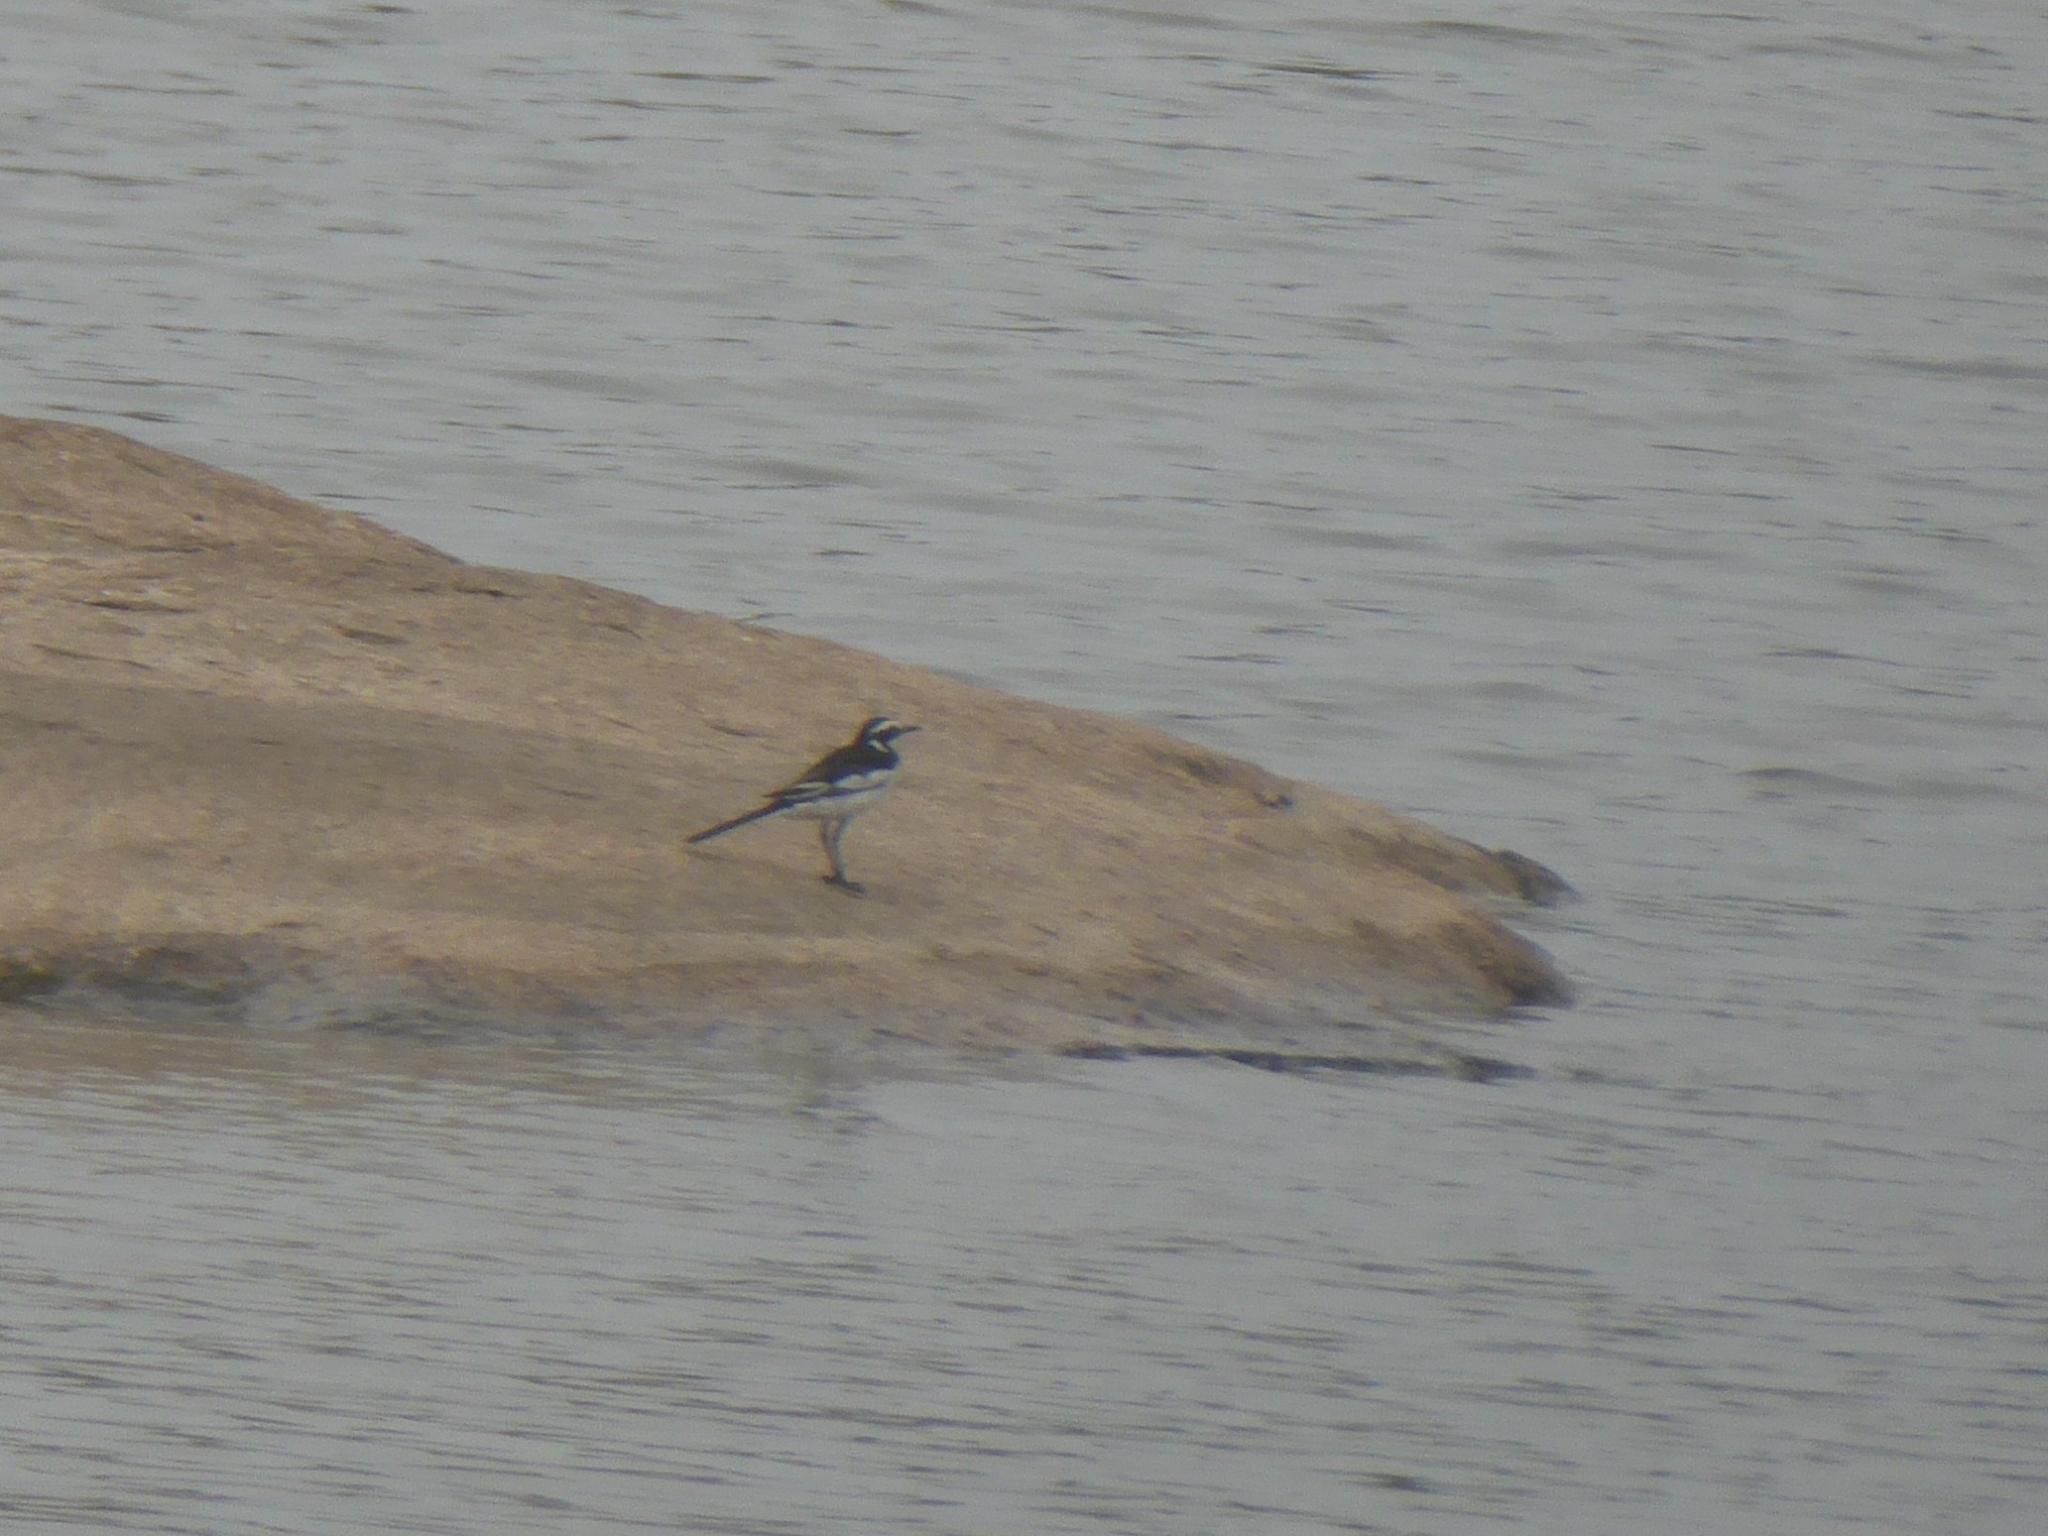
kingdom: Animalia
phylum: Chordata
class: Aves
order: Passeriformes
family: Motacillidae
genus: Motacilla
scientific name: Motacilla aguimp
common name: African pied wagtail
